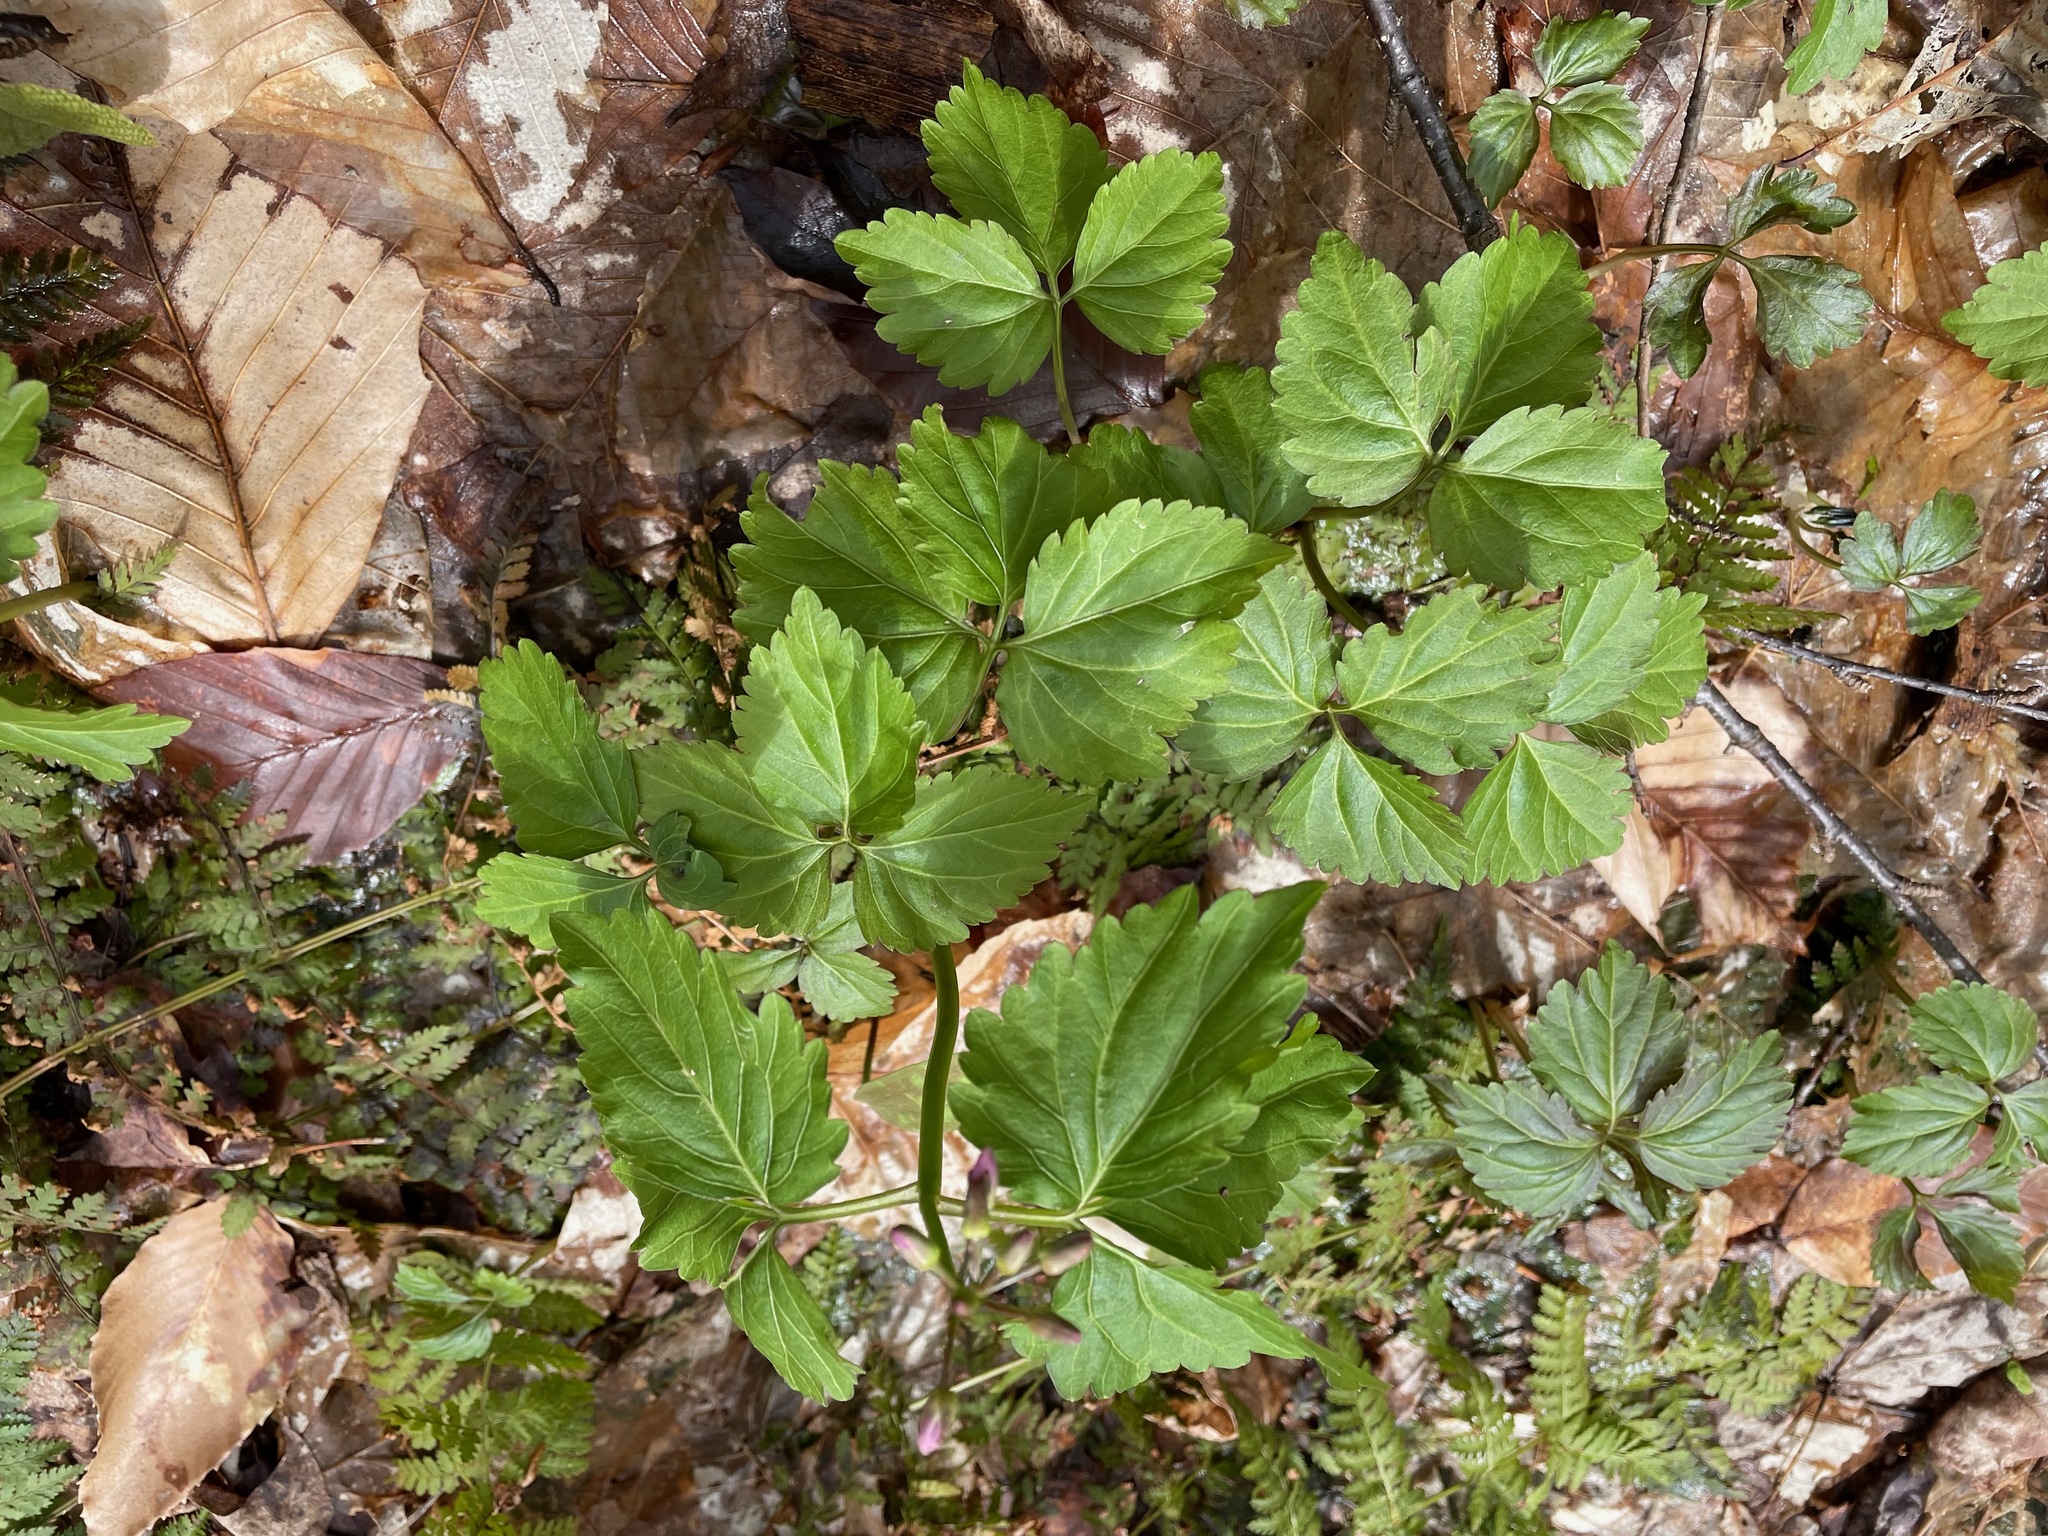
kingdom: Plantae
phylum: Tracheophyta
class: Magnoliopsida
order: Brassicales
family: Brassicaceae
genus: Cardamine
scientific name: Cardamine diphylla
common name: Broad-leaved toothwort
